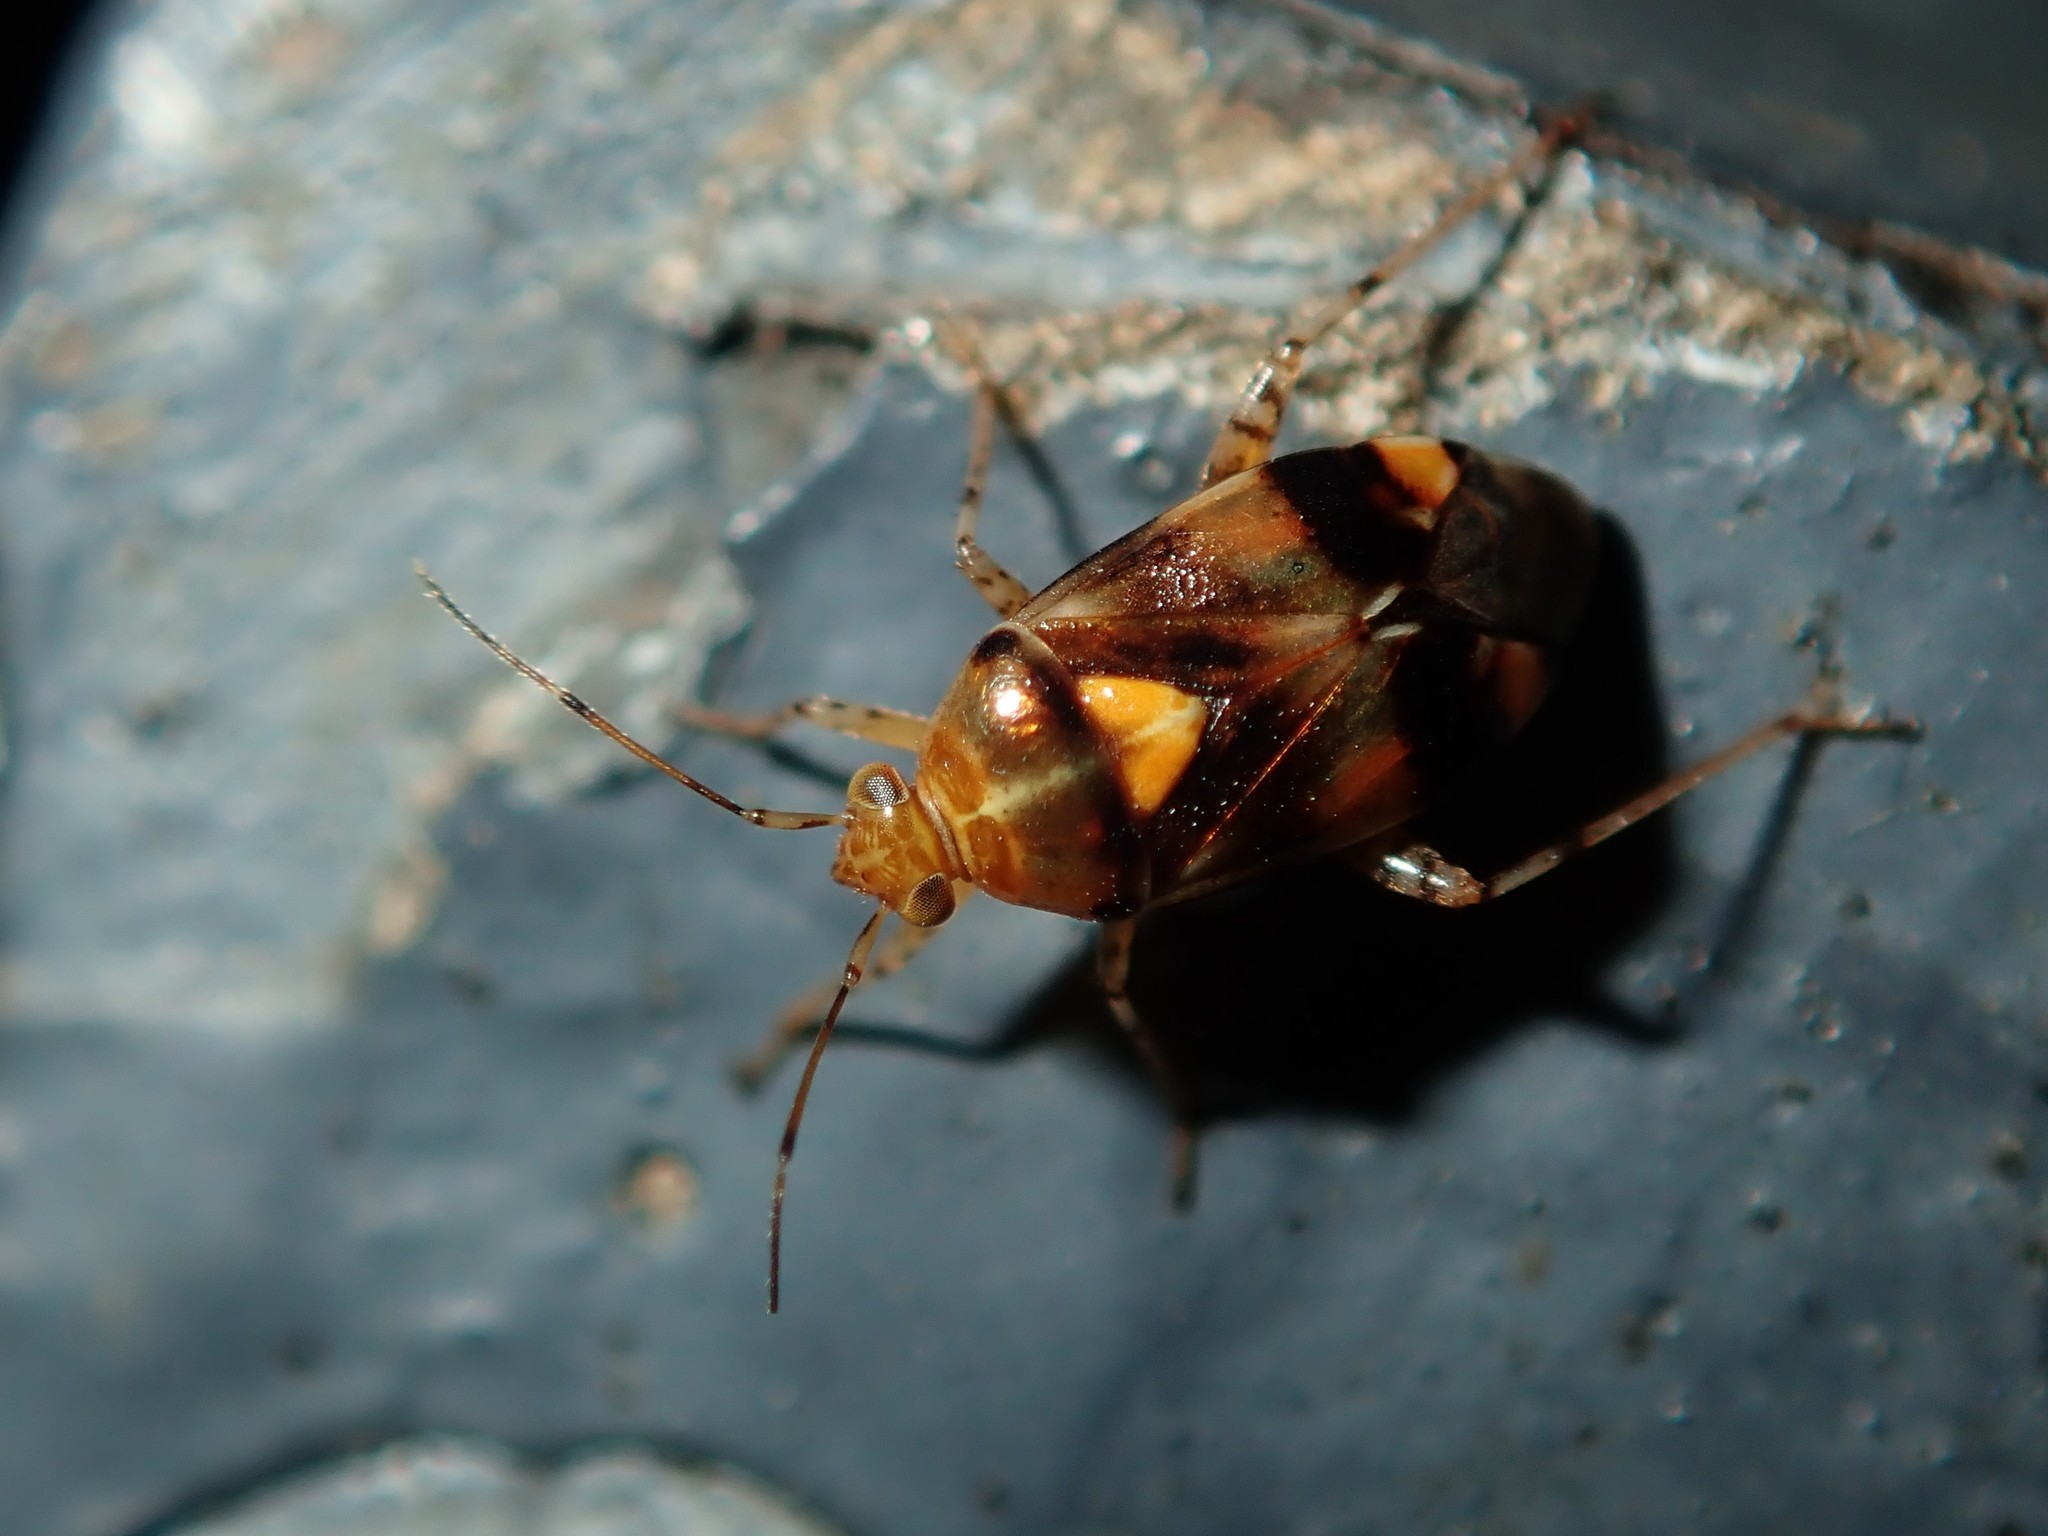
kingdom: Animalia
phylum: Arthropoda
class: Insecta
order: Hemiptera
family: Miridae
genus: Liocoris
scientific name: Liocoris tripustulatus
